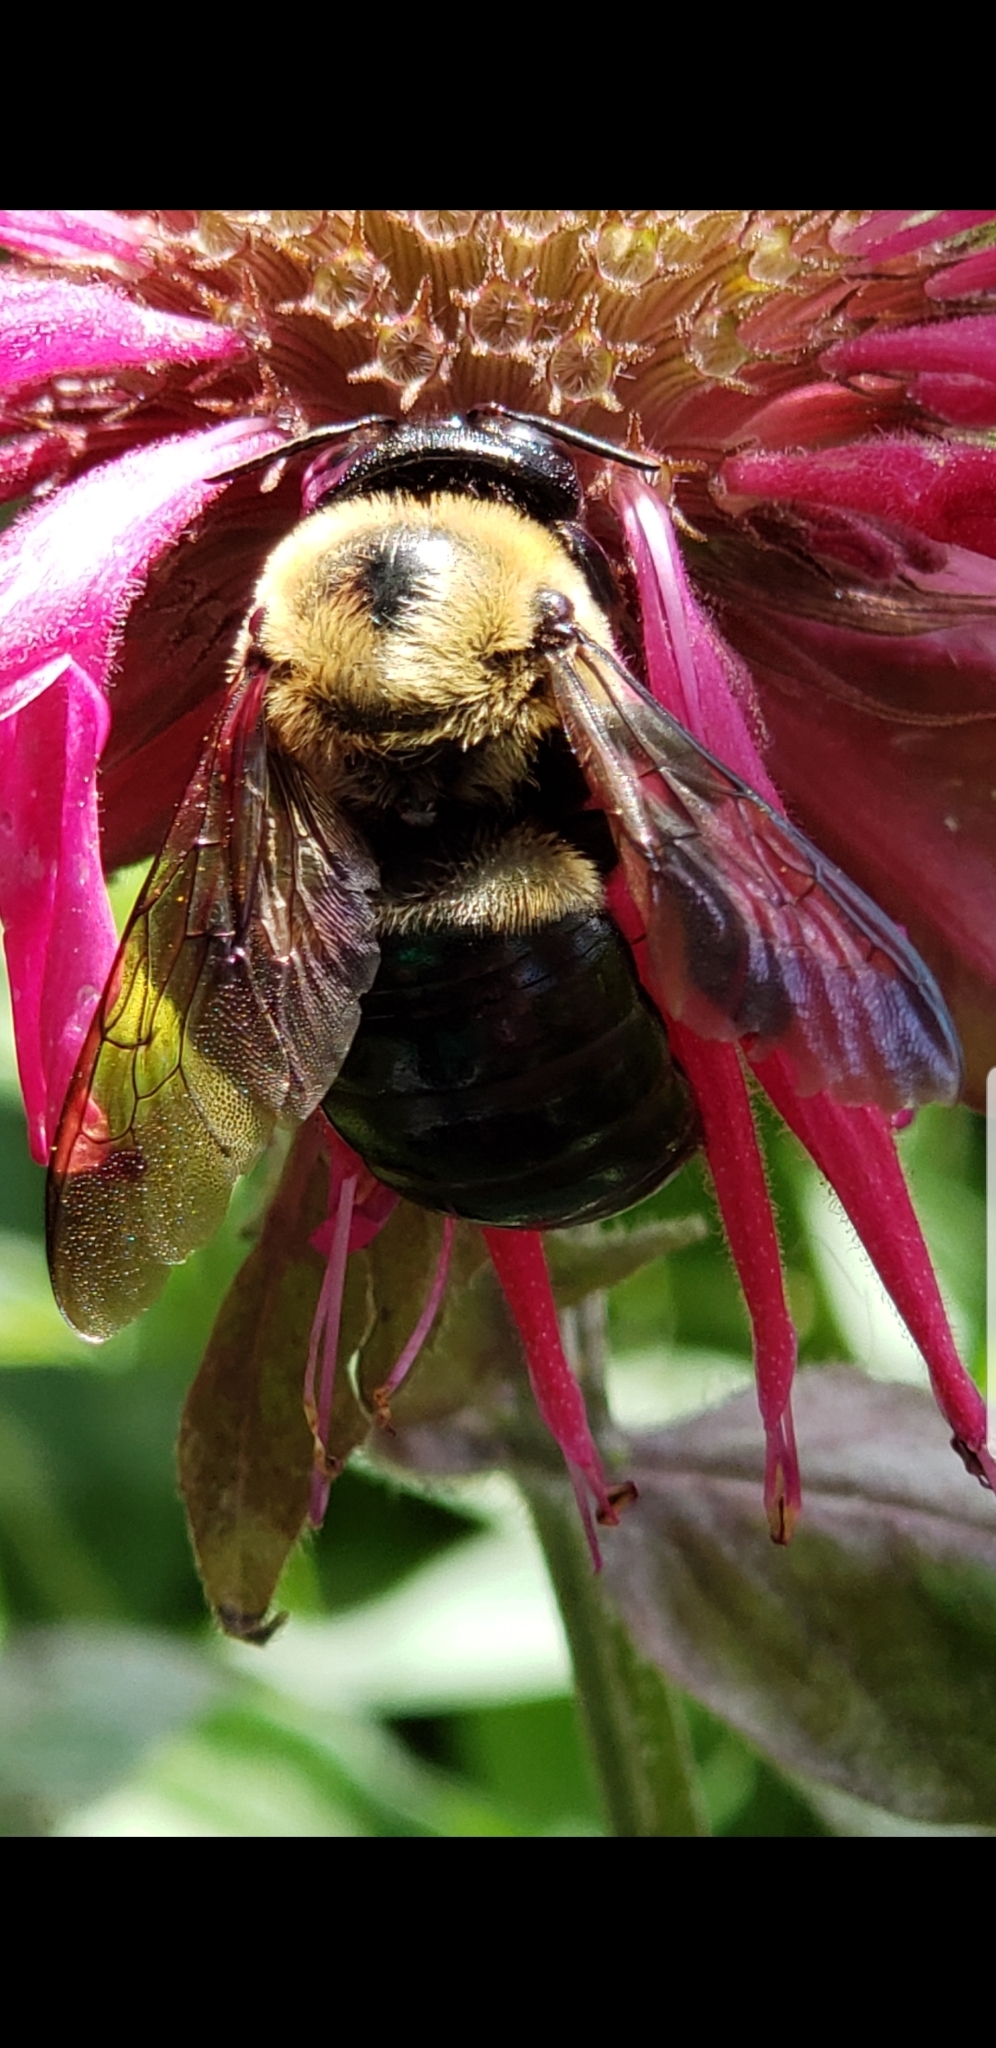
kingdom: Animalia
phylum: Arthropoda
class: Insecta
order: Hymenoptera
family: Apidae
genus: Xylocopa
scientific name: Xylocopa virginica
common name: Carpenter bee
